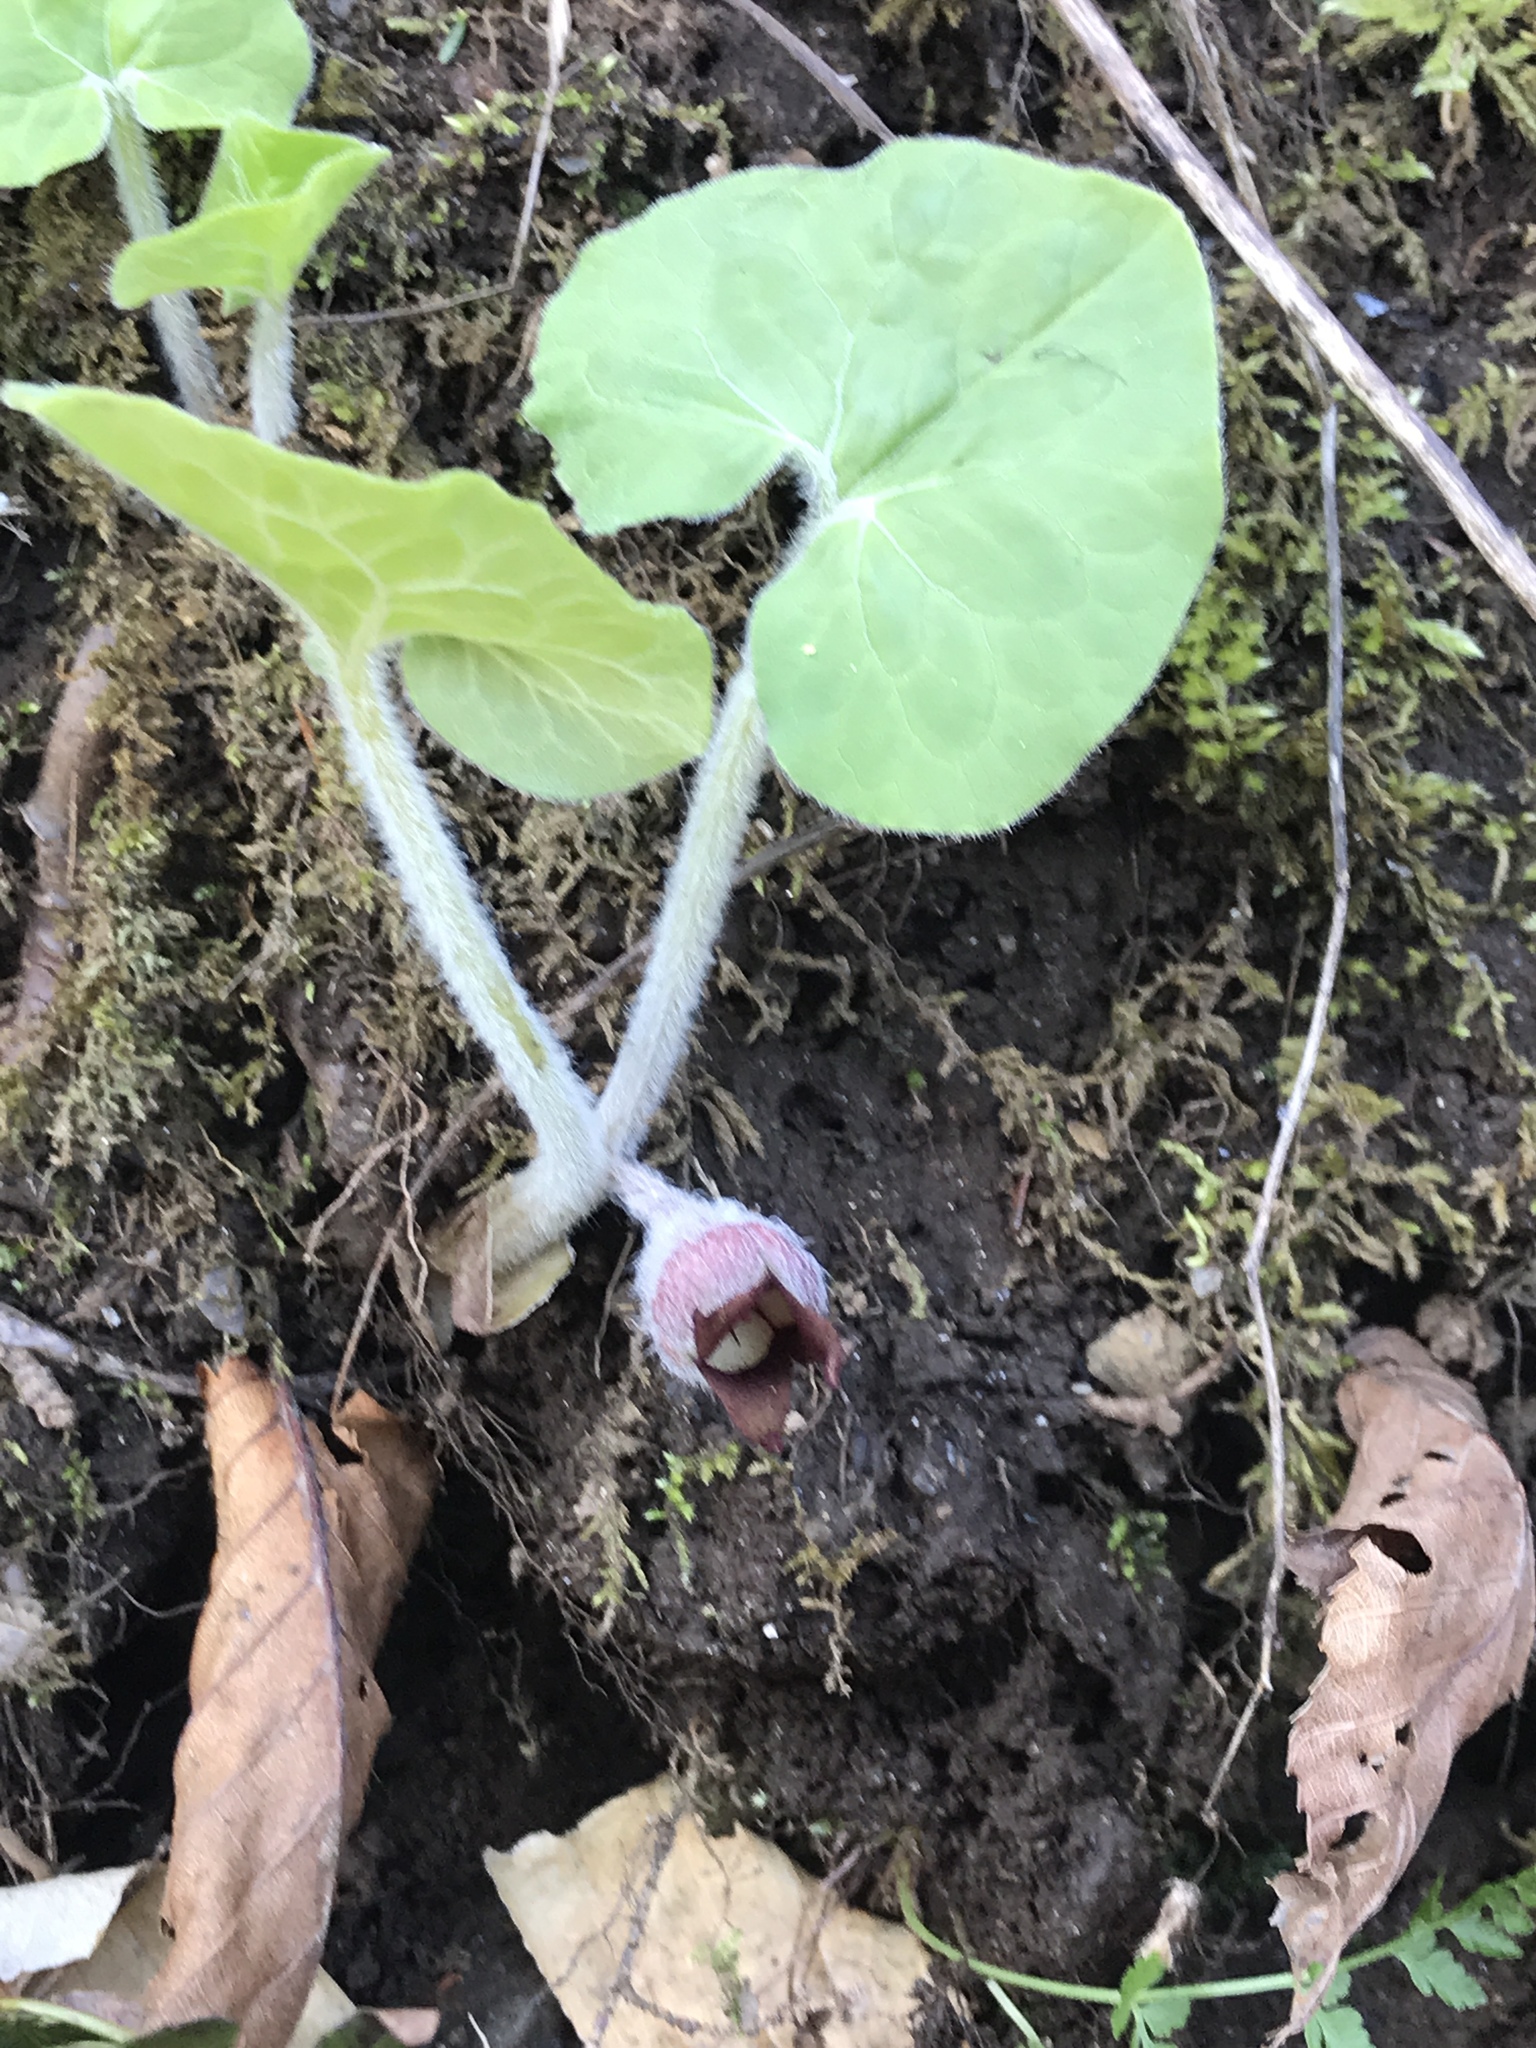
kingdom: Plantae
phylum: Tracheophyta
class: Magnoliopsida
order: Piperales
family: Aristolochiaceae
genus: Asarum
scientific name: Asarum canadense
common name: Wild ginger
